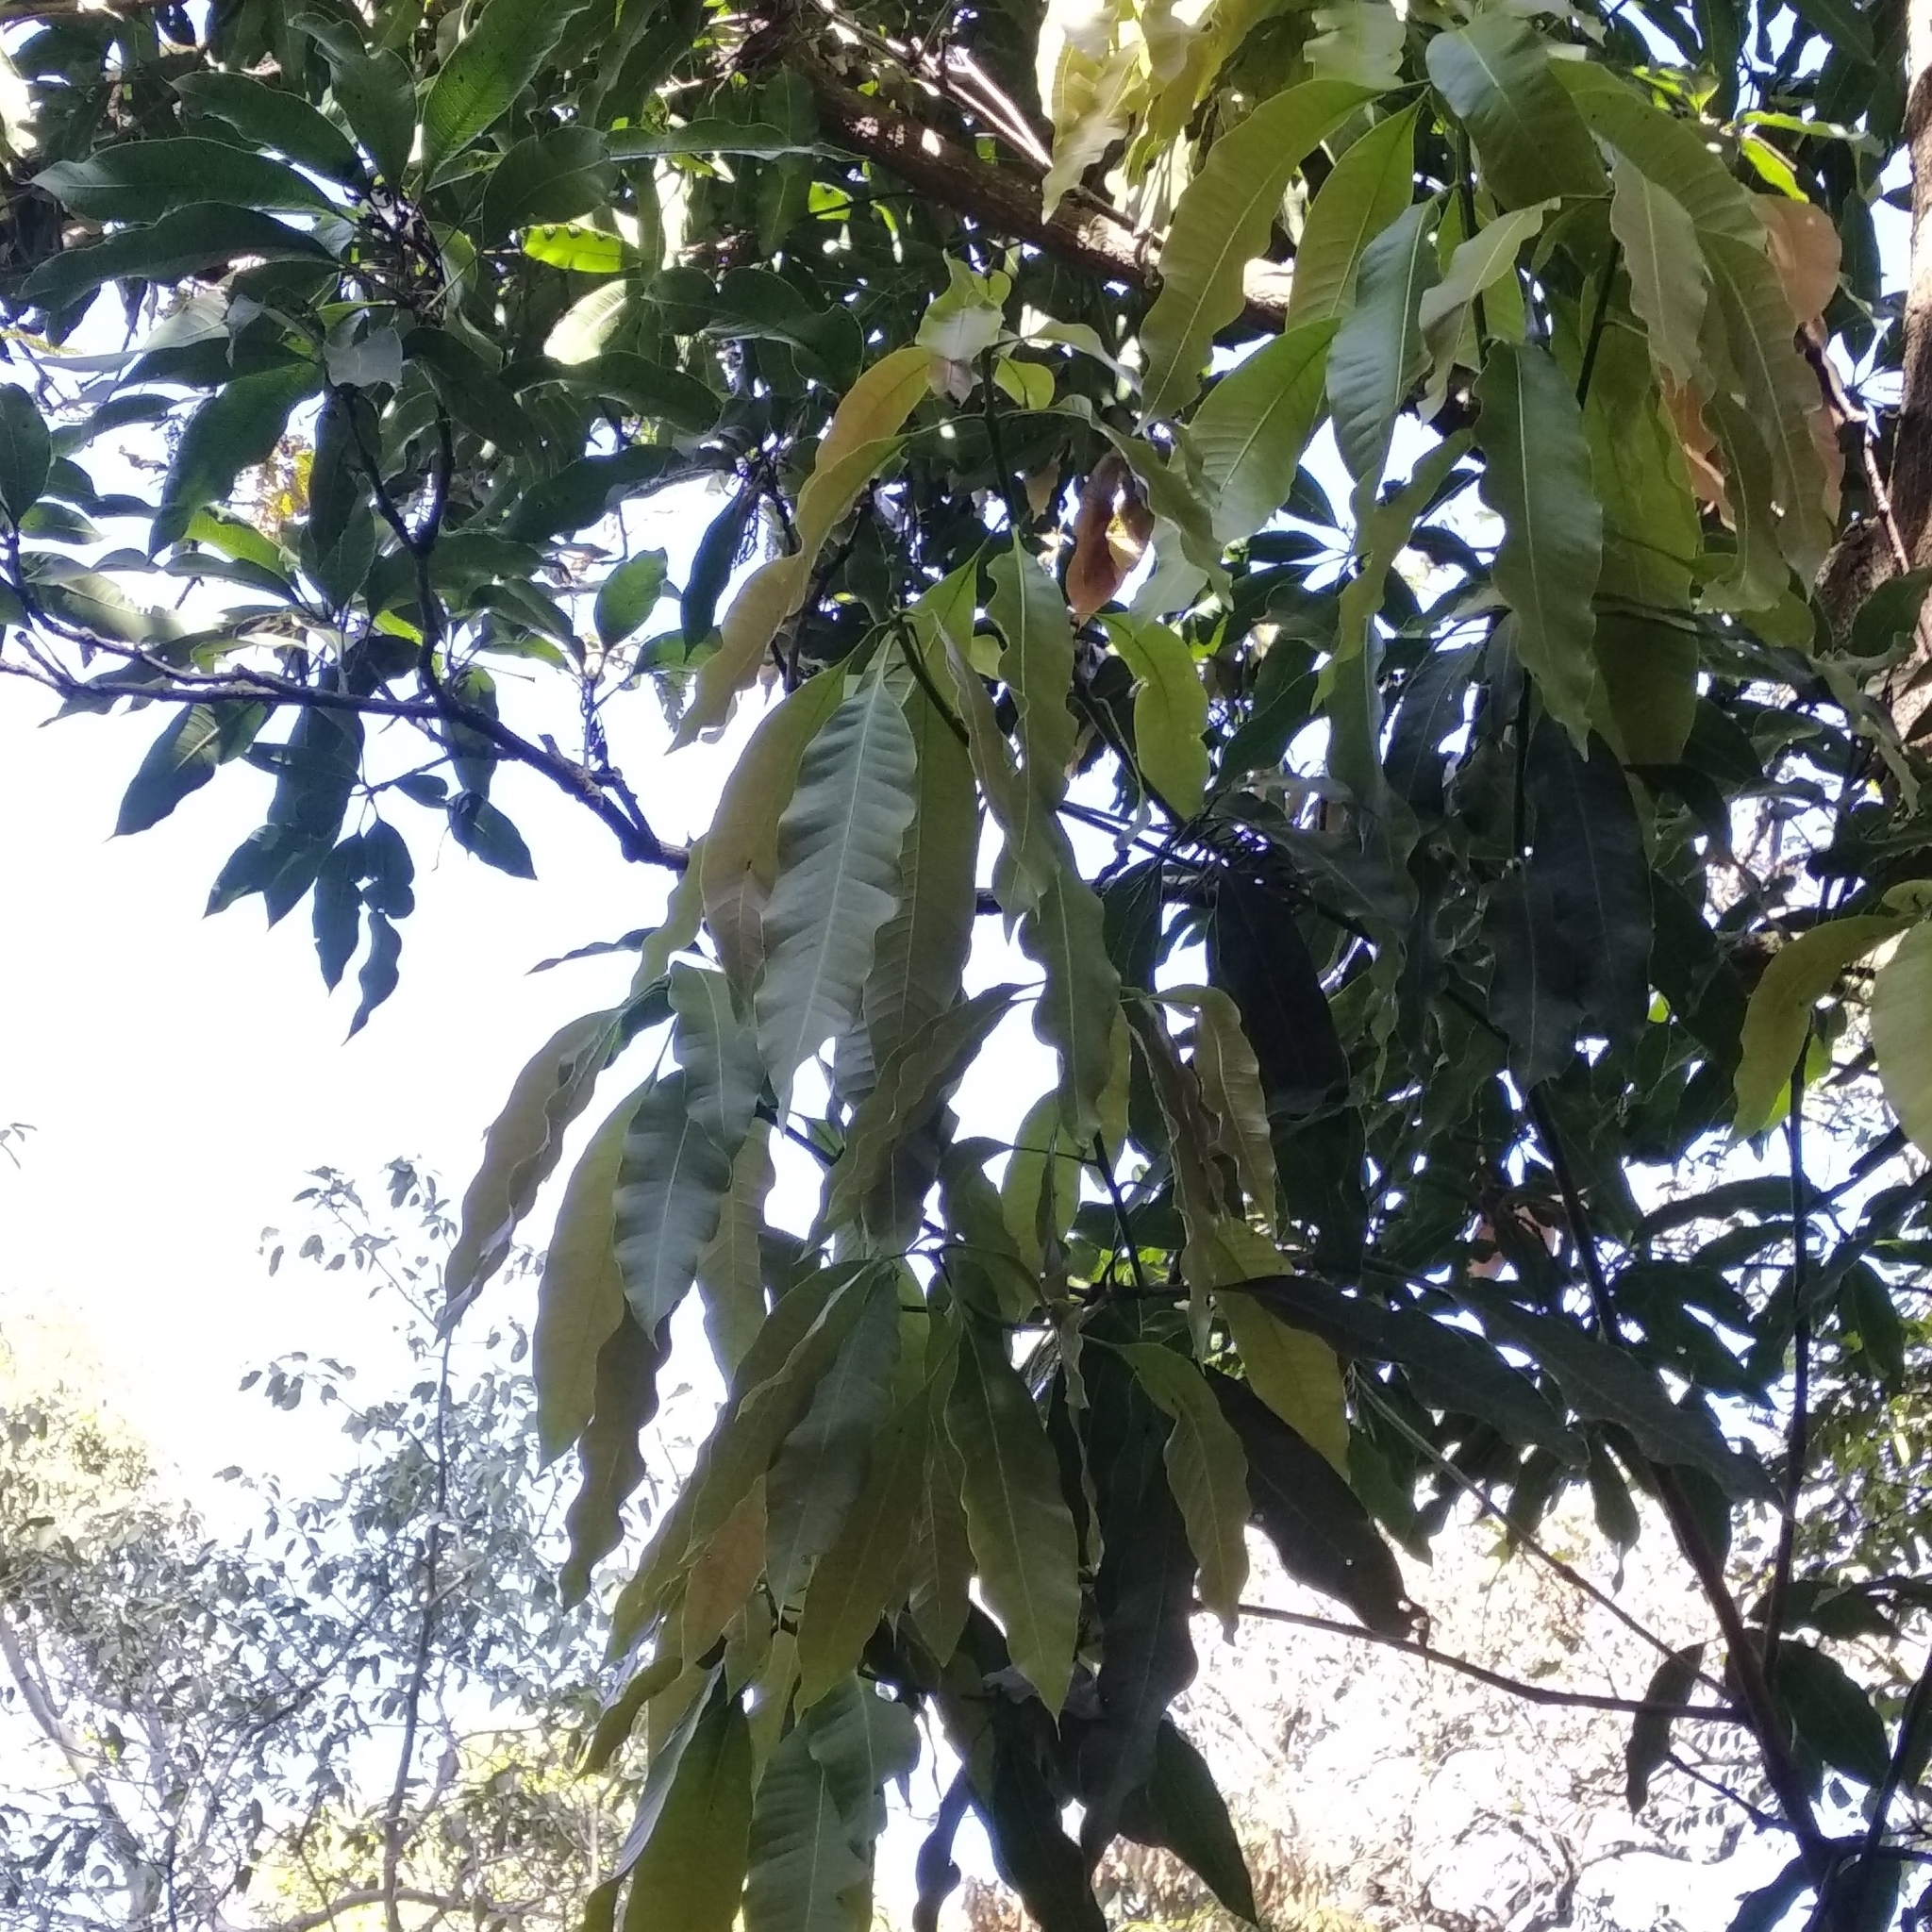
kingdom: Plantae
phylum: Tracheophyta
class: Magnoliopsida
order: Sapindales
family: Anacardiaceae
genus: Mangifera
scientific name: Mangifera indica
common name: Mango
